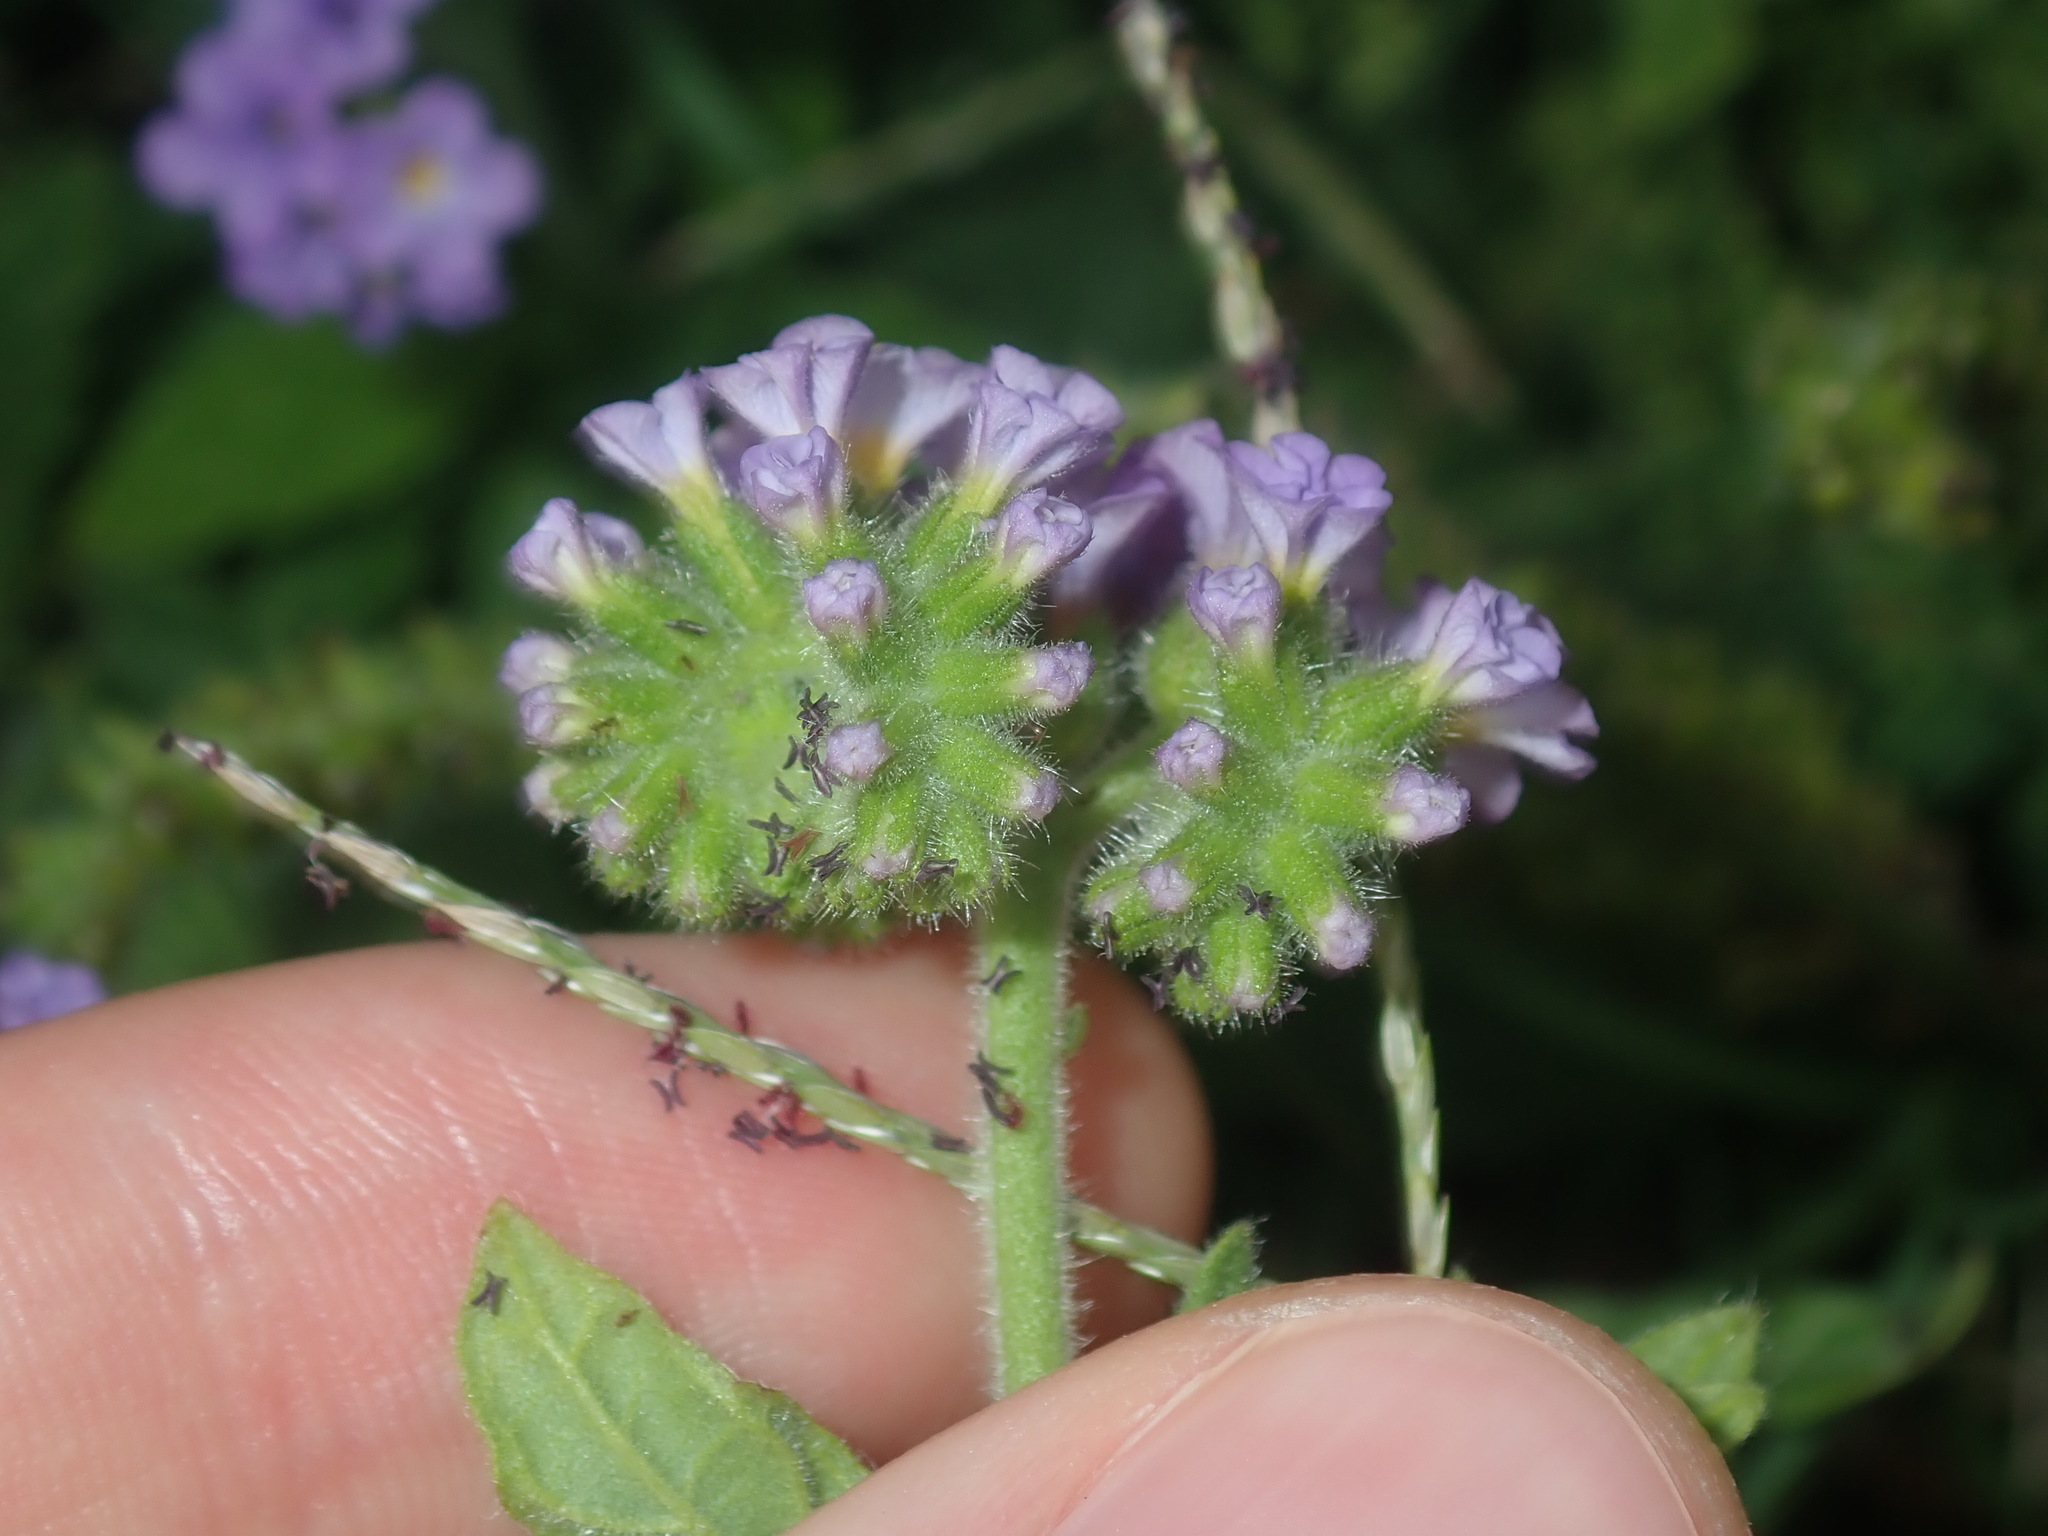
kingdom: Plantae
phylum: Tracheophyta
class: Magnoliopsida
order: Boraginales
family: Heliotropiaceae
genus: Heliotropium
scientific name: Heliotropium amplexicaule
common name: Clasping heliotrope
